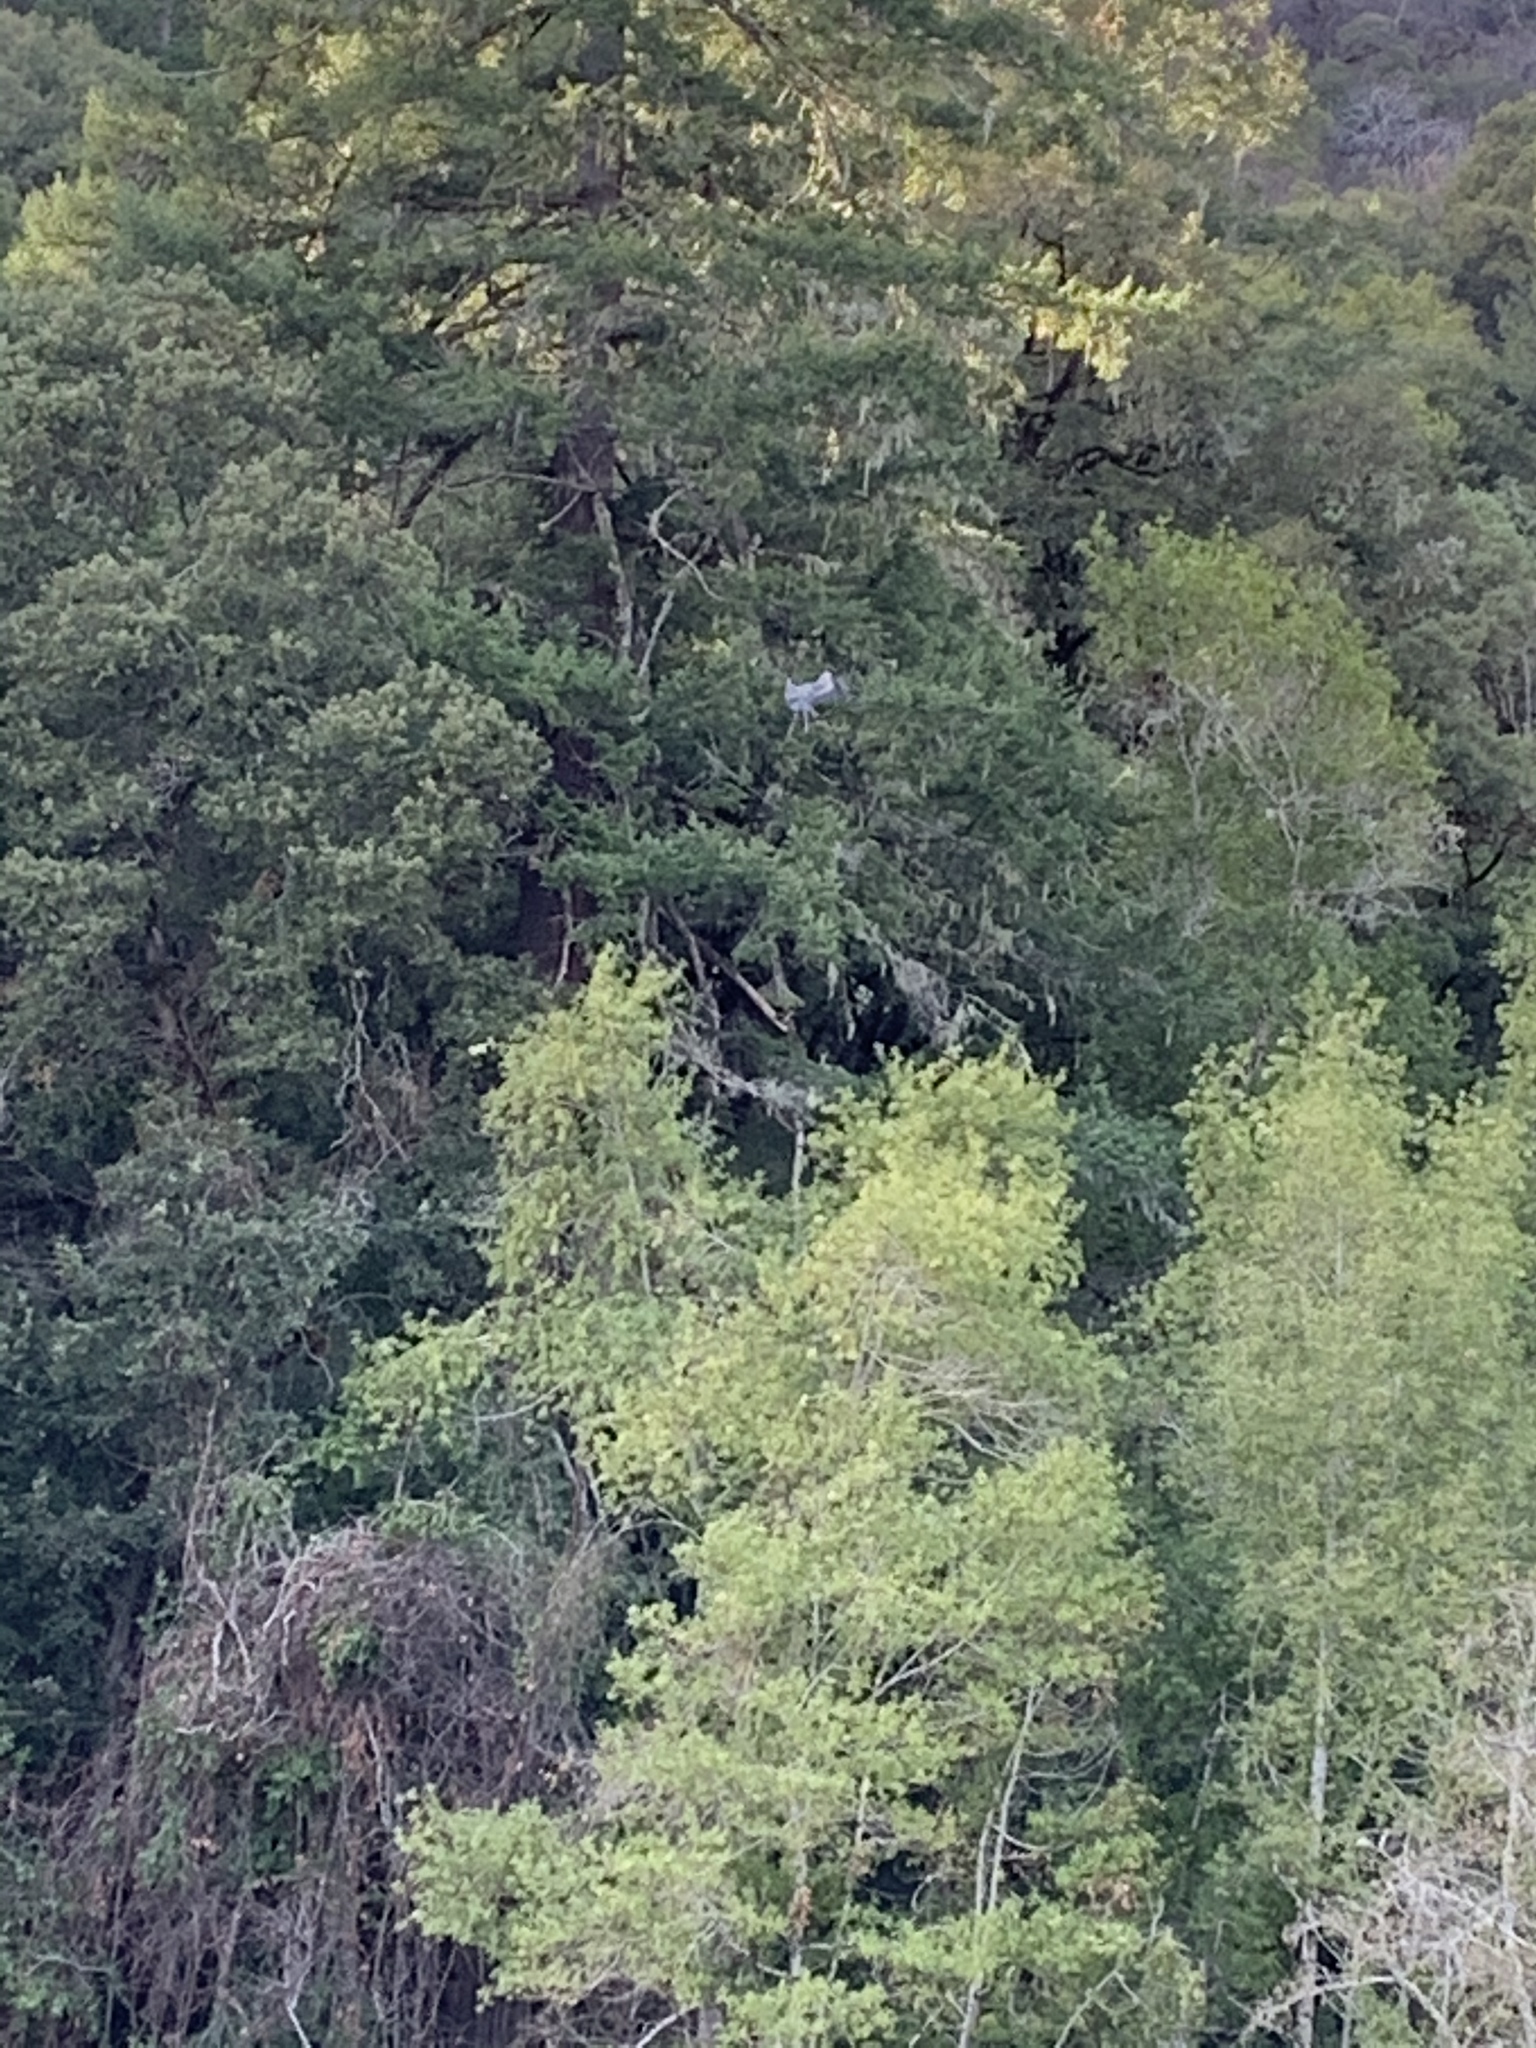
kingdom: Animalia
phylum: Chordata
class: Aves
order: Pelecaniformes
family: Ardeidae
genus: Ardea
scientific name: Ardea herodias
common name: Great blue heron
